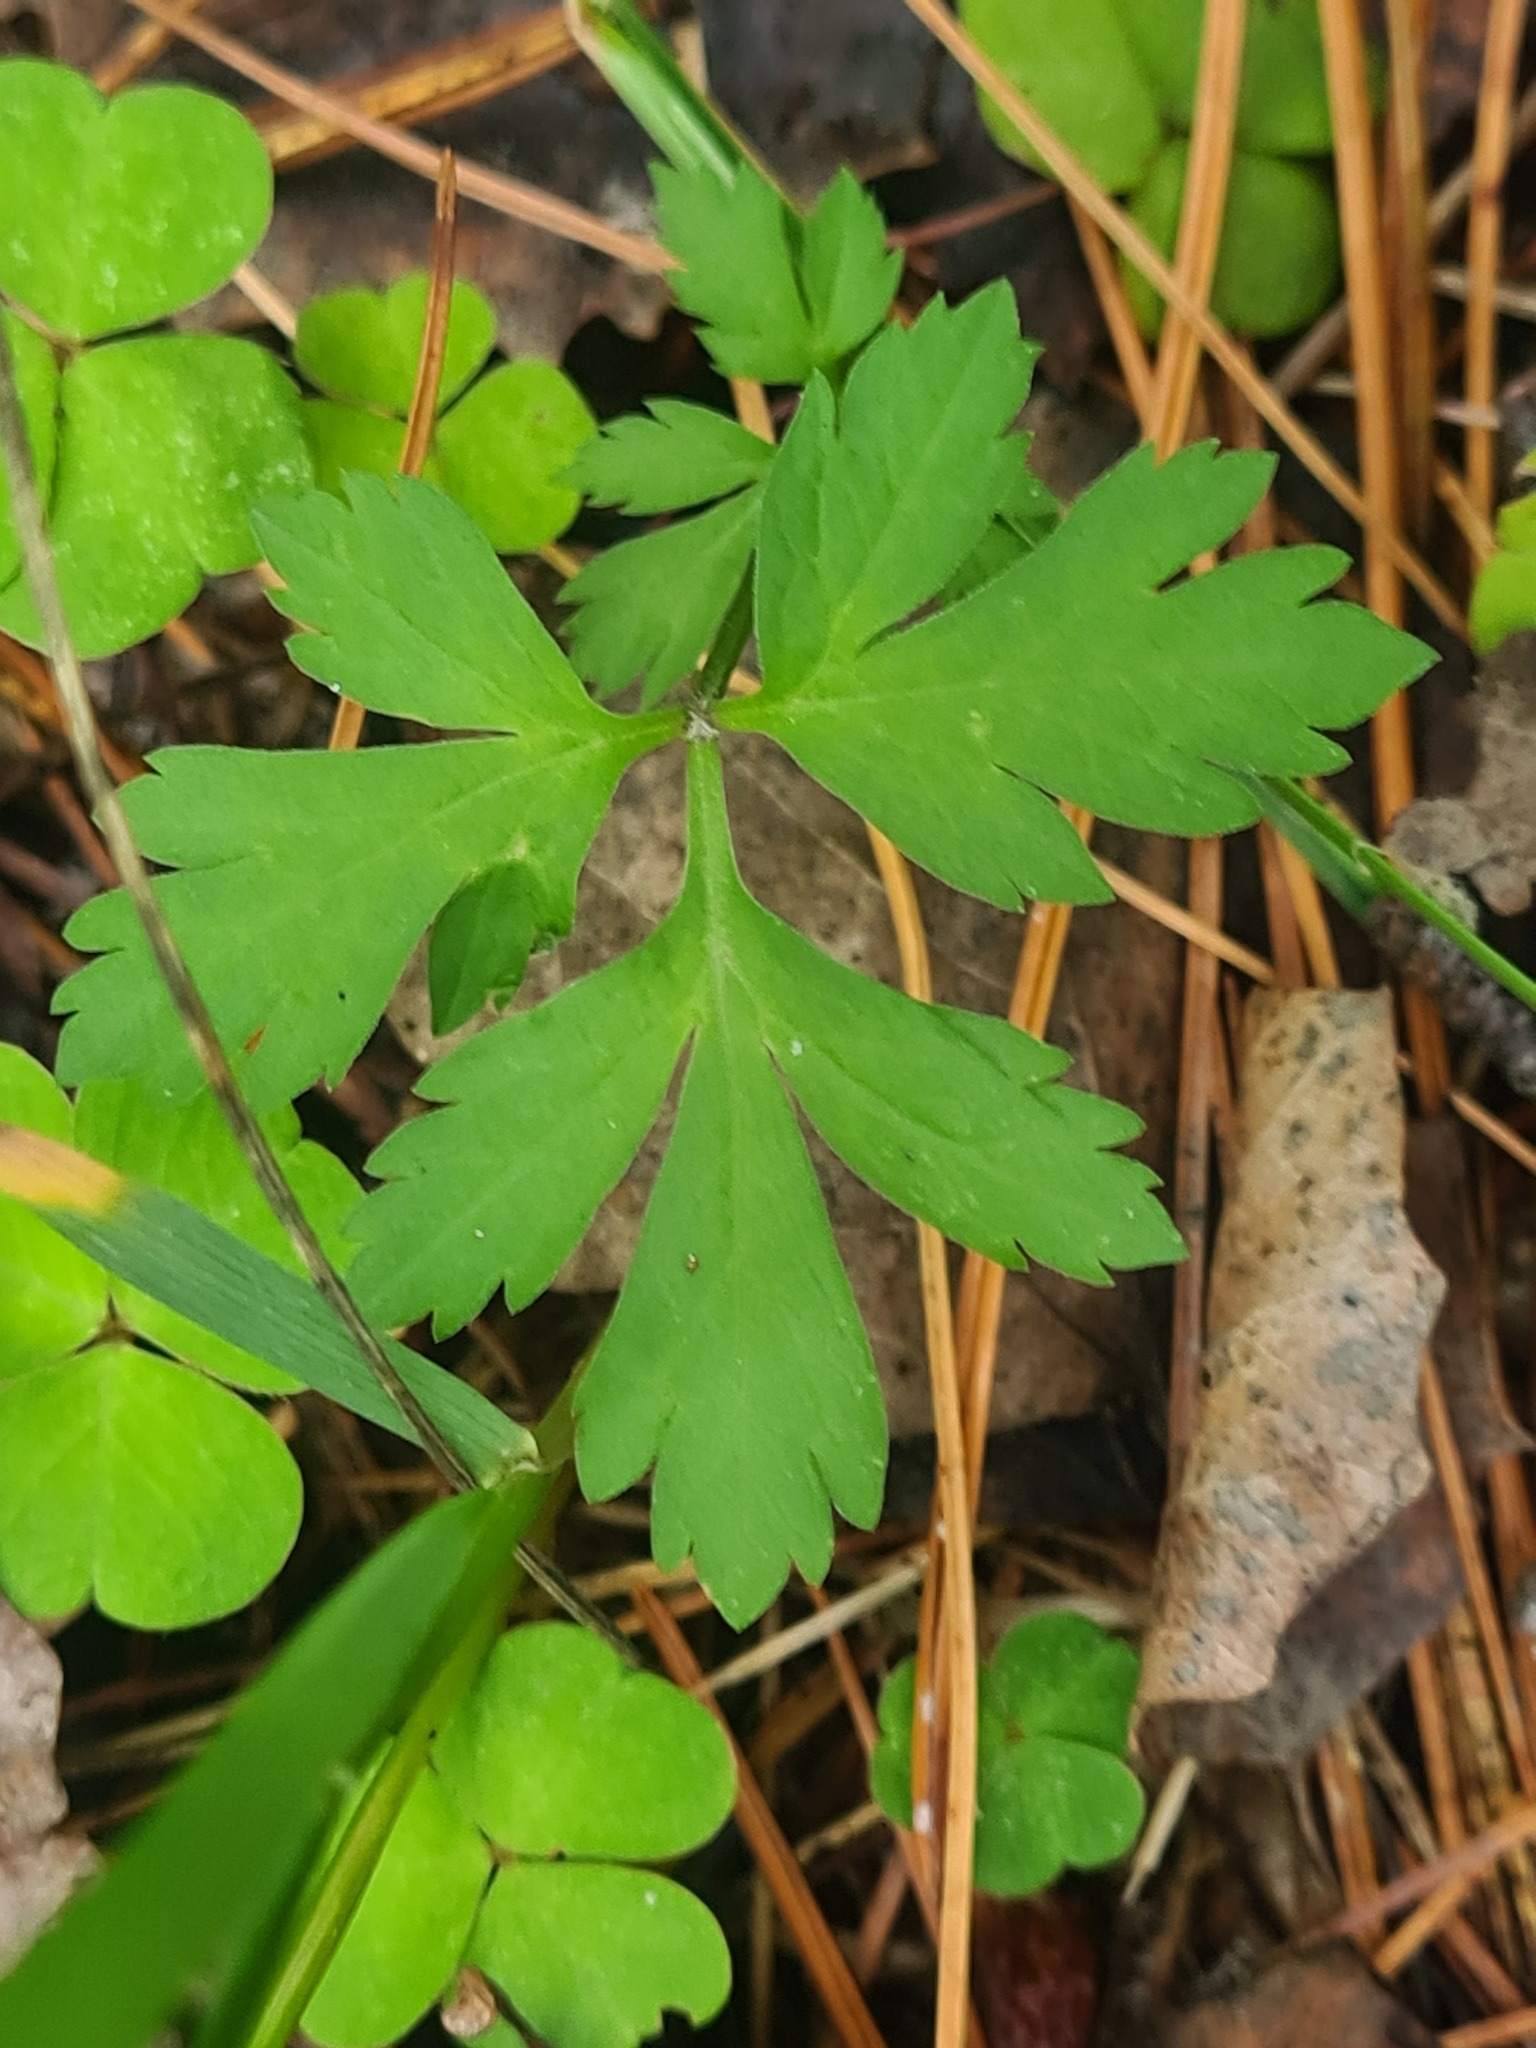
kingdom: Plantae
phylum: Tracheophyta
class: Magnoliopsida
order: Ranunculales
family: Ranunculaceae
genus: Ranunculus
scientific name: Ranunculus propinquus
